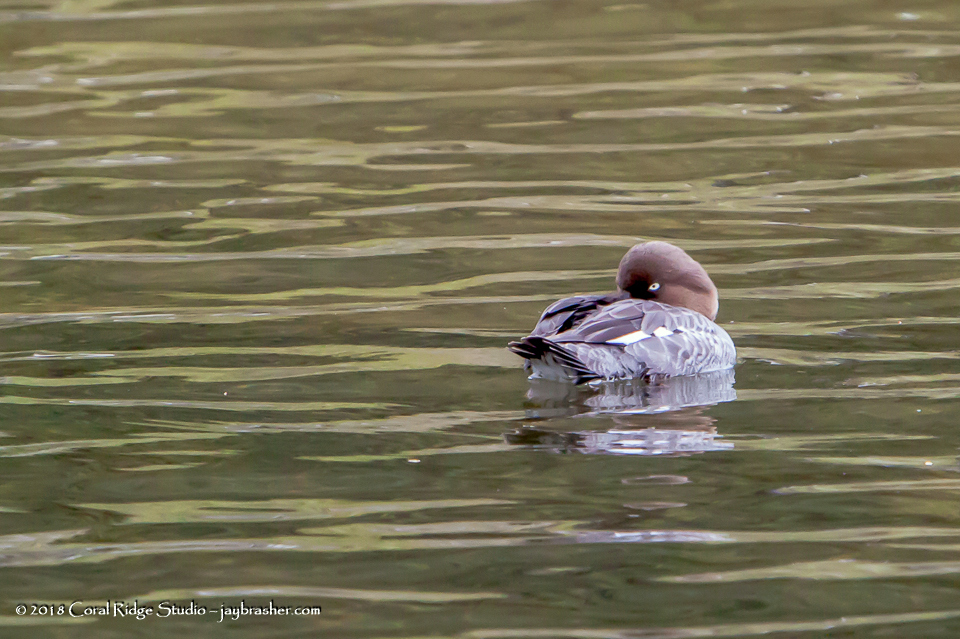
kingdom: Animalia
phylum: Chordata
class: Aves
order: Anseriformes
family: Anatidae
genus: Bucephala
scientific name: Bucephala clangula
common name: Common goldeneye
